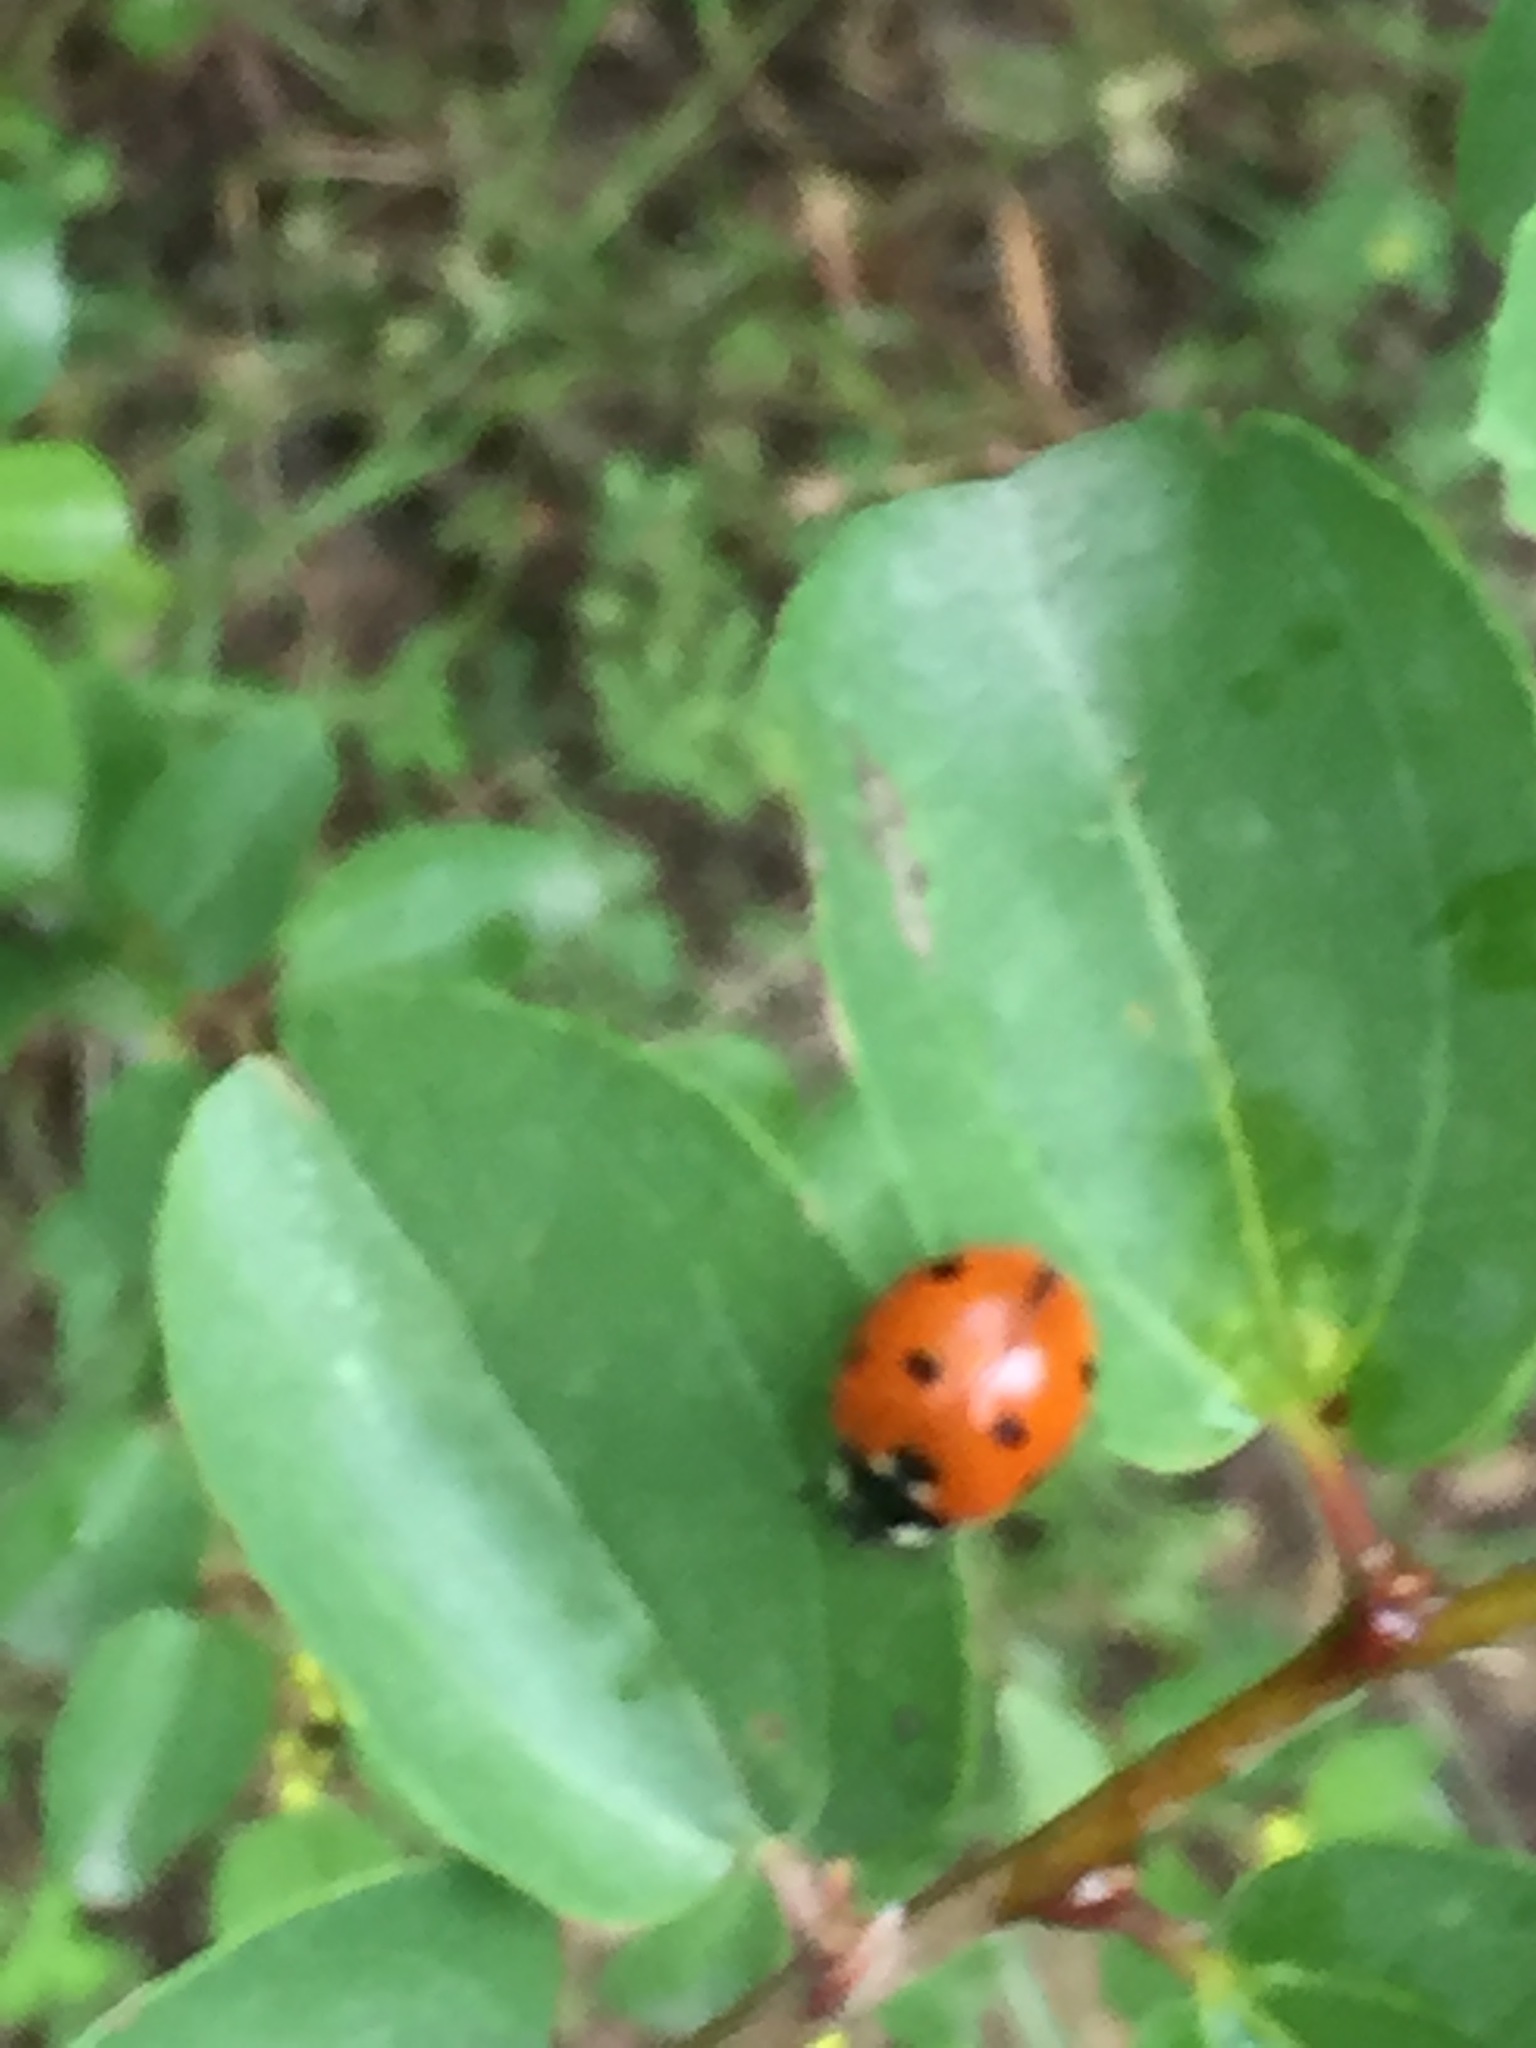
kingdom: Animalia
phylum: Arthropoda
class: Insecta
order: Coleoptera
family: Coccinellidae
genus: Coccinella
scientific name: Coccinella septempunctata
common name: Sevenspotted lady beetle
